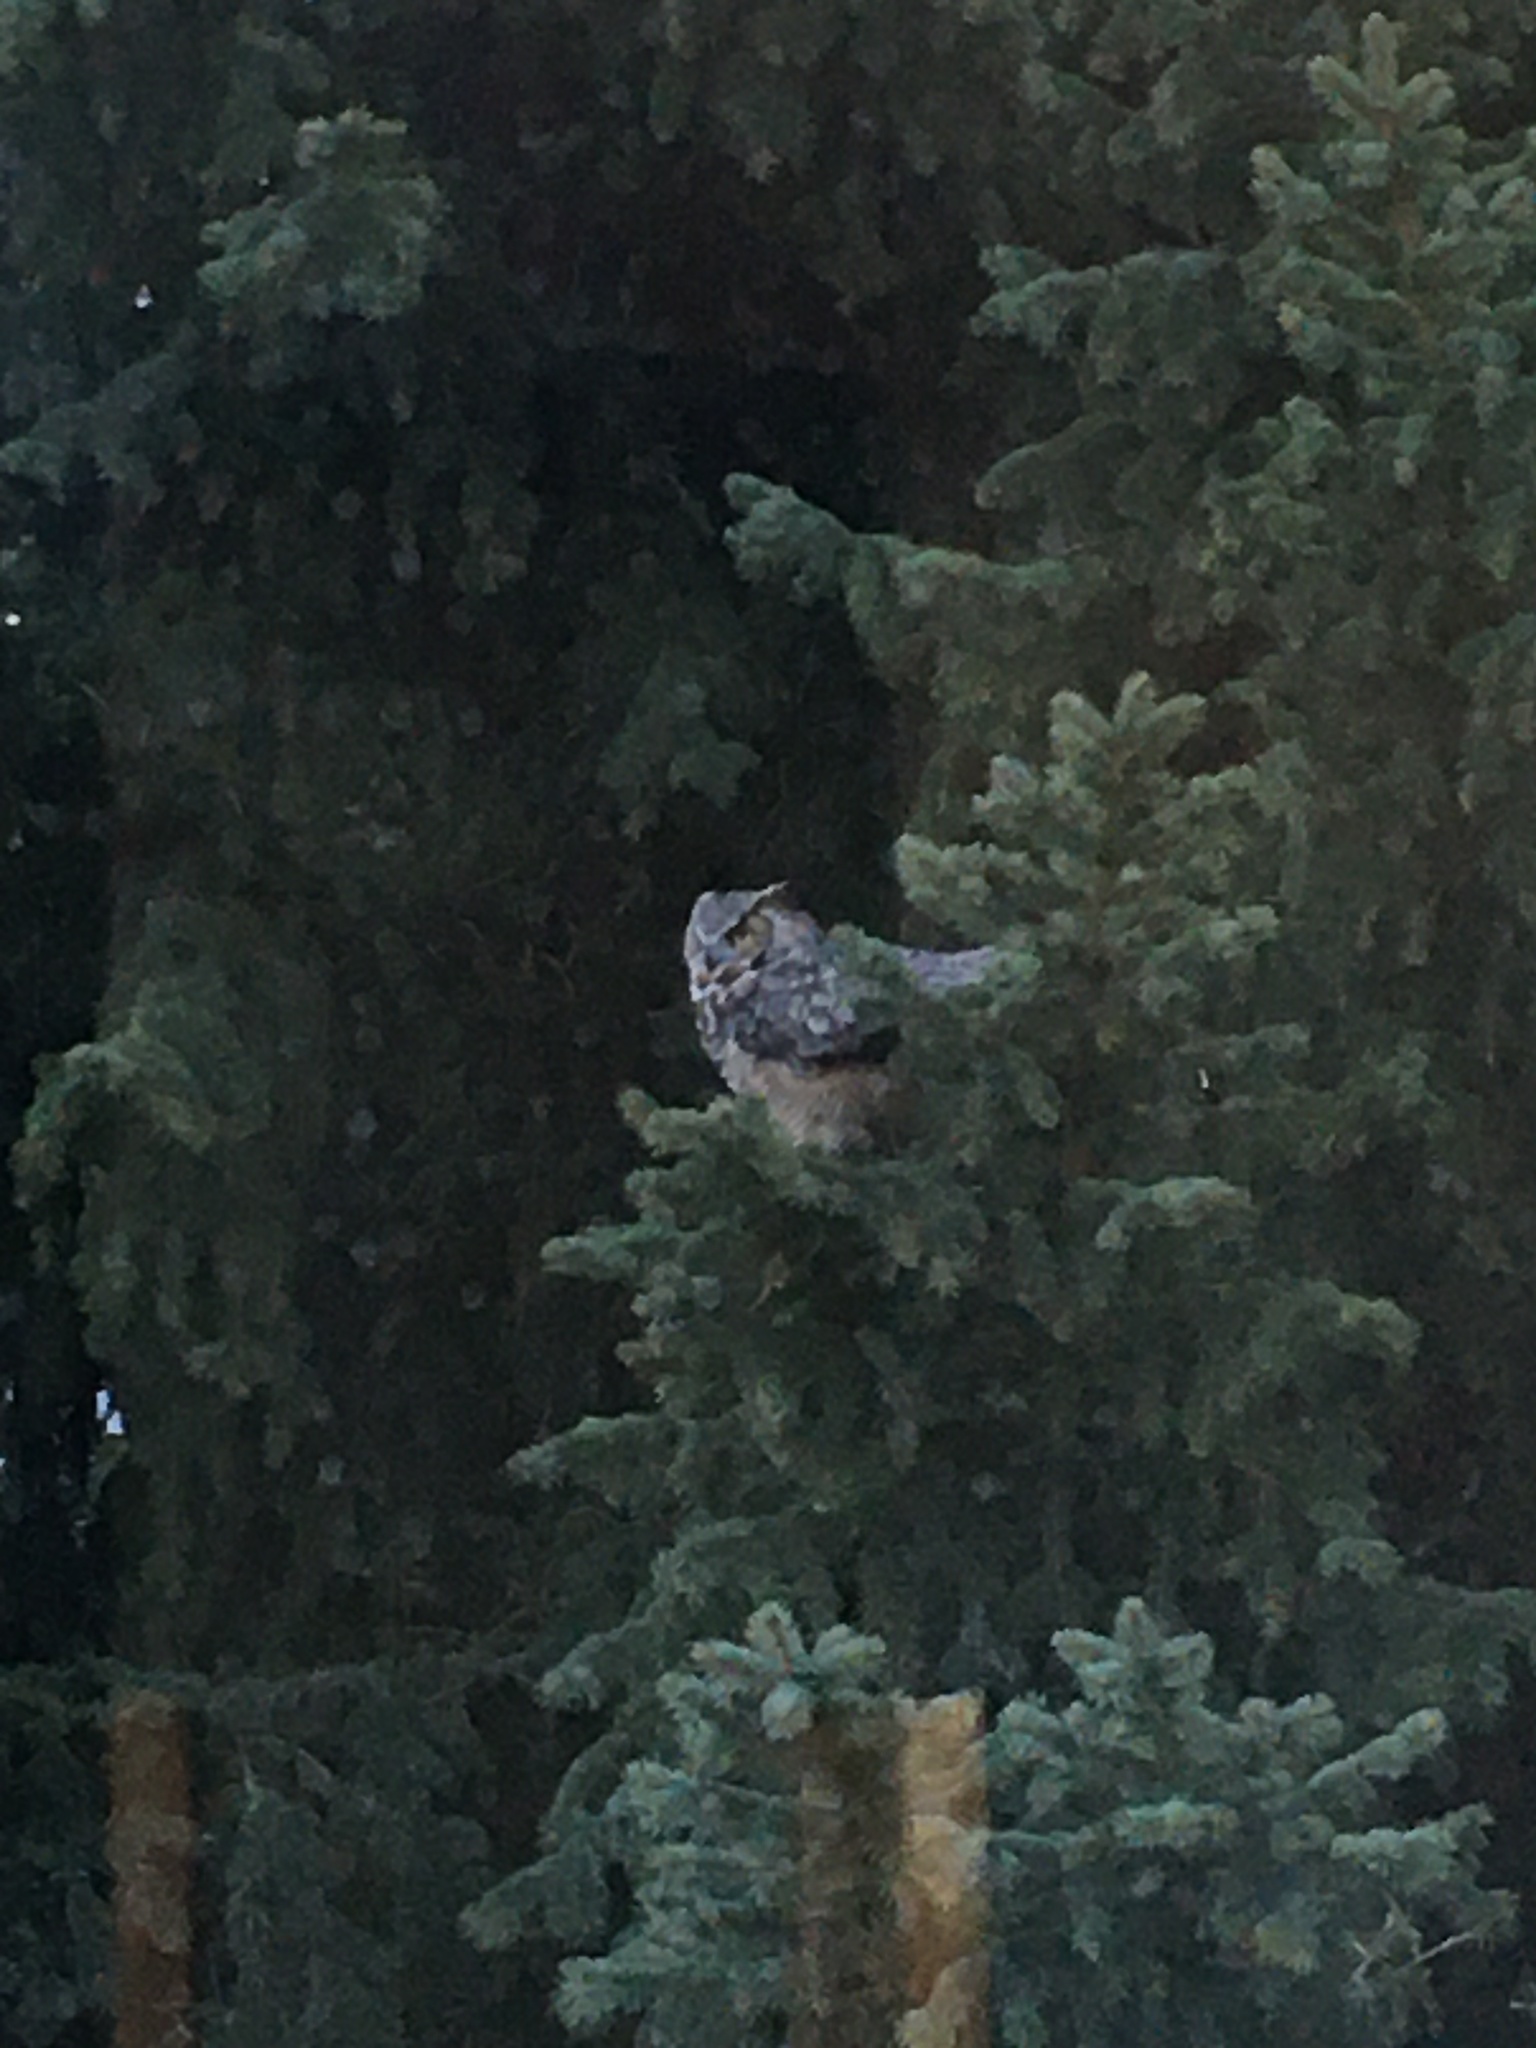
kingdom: Animalia
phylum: Chordata
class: Aves
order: Strigiformes
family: Strigidae
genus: Bubo
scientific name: Bubo virginianus
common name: Great horned owl
